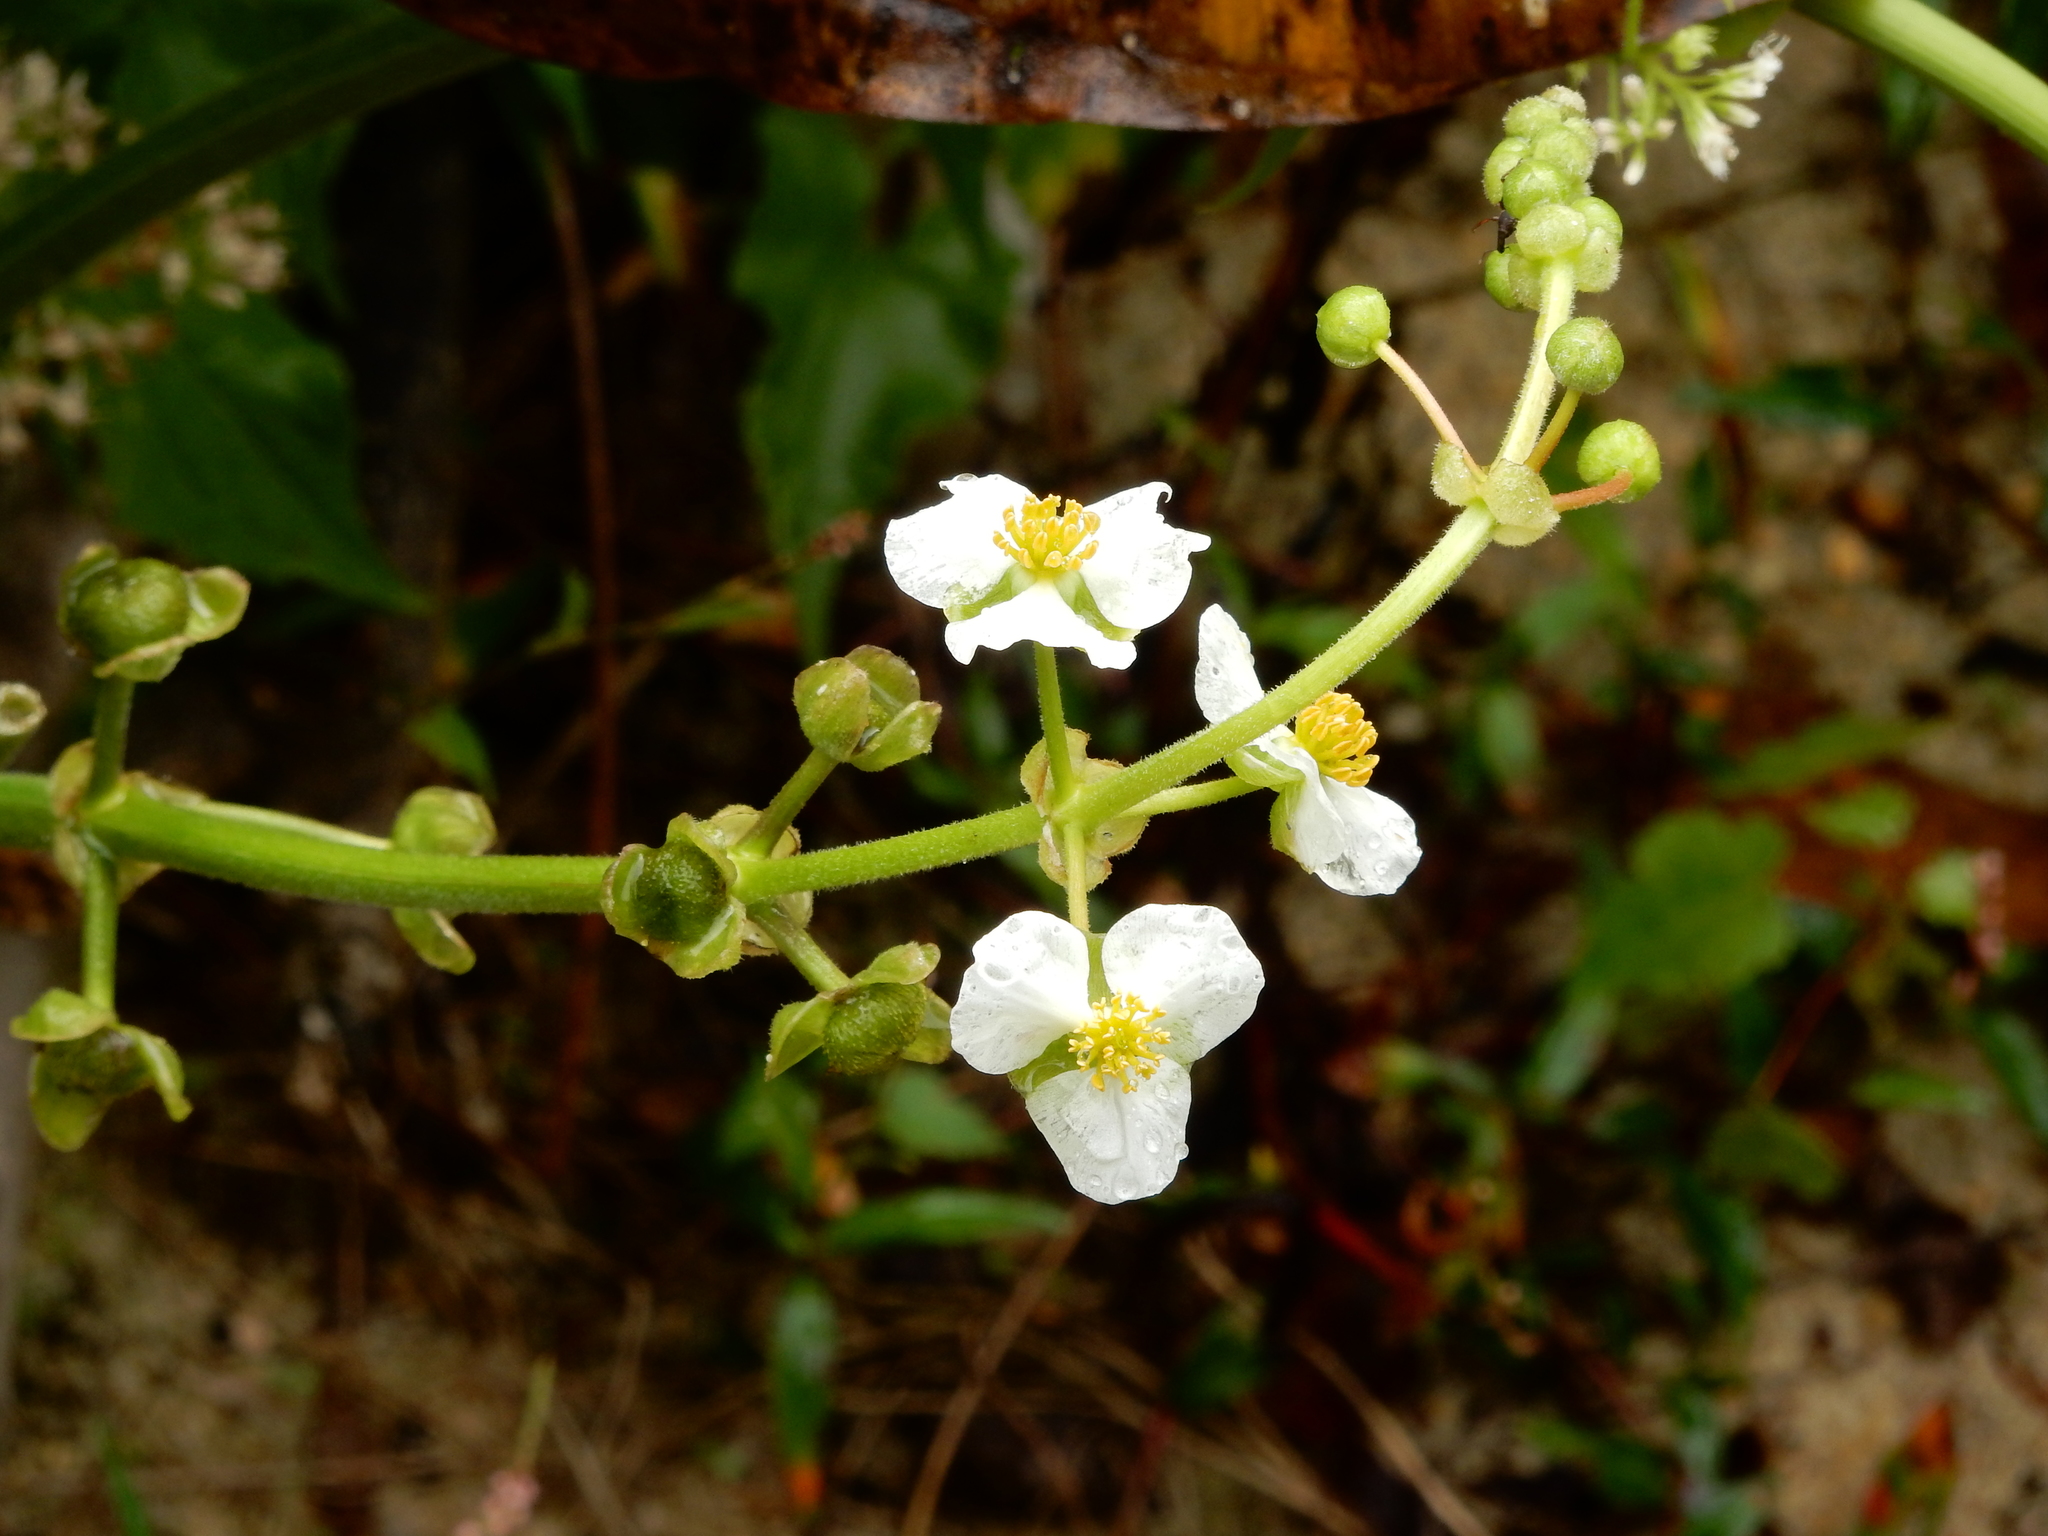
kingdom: Plantae
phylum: Tracheophyta
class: Liliopsida
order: Alismatales
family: Alismataceae
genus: Sagittaria
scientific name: Sagittaria latifolia
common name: Duck-potato
